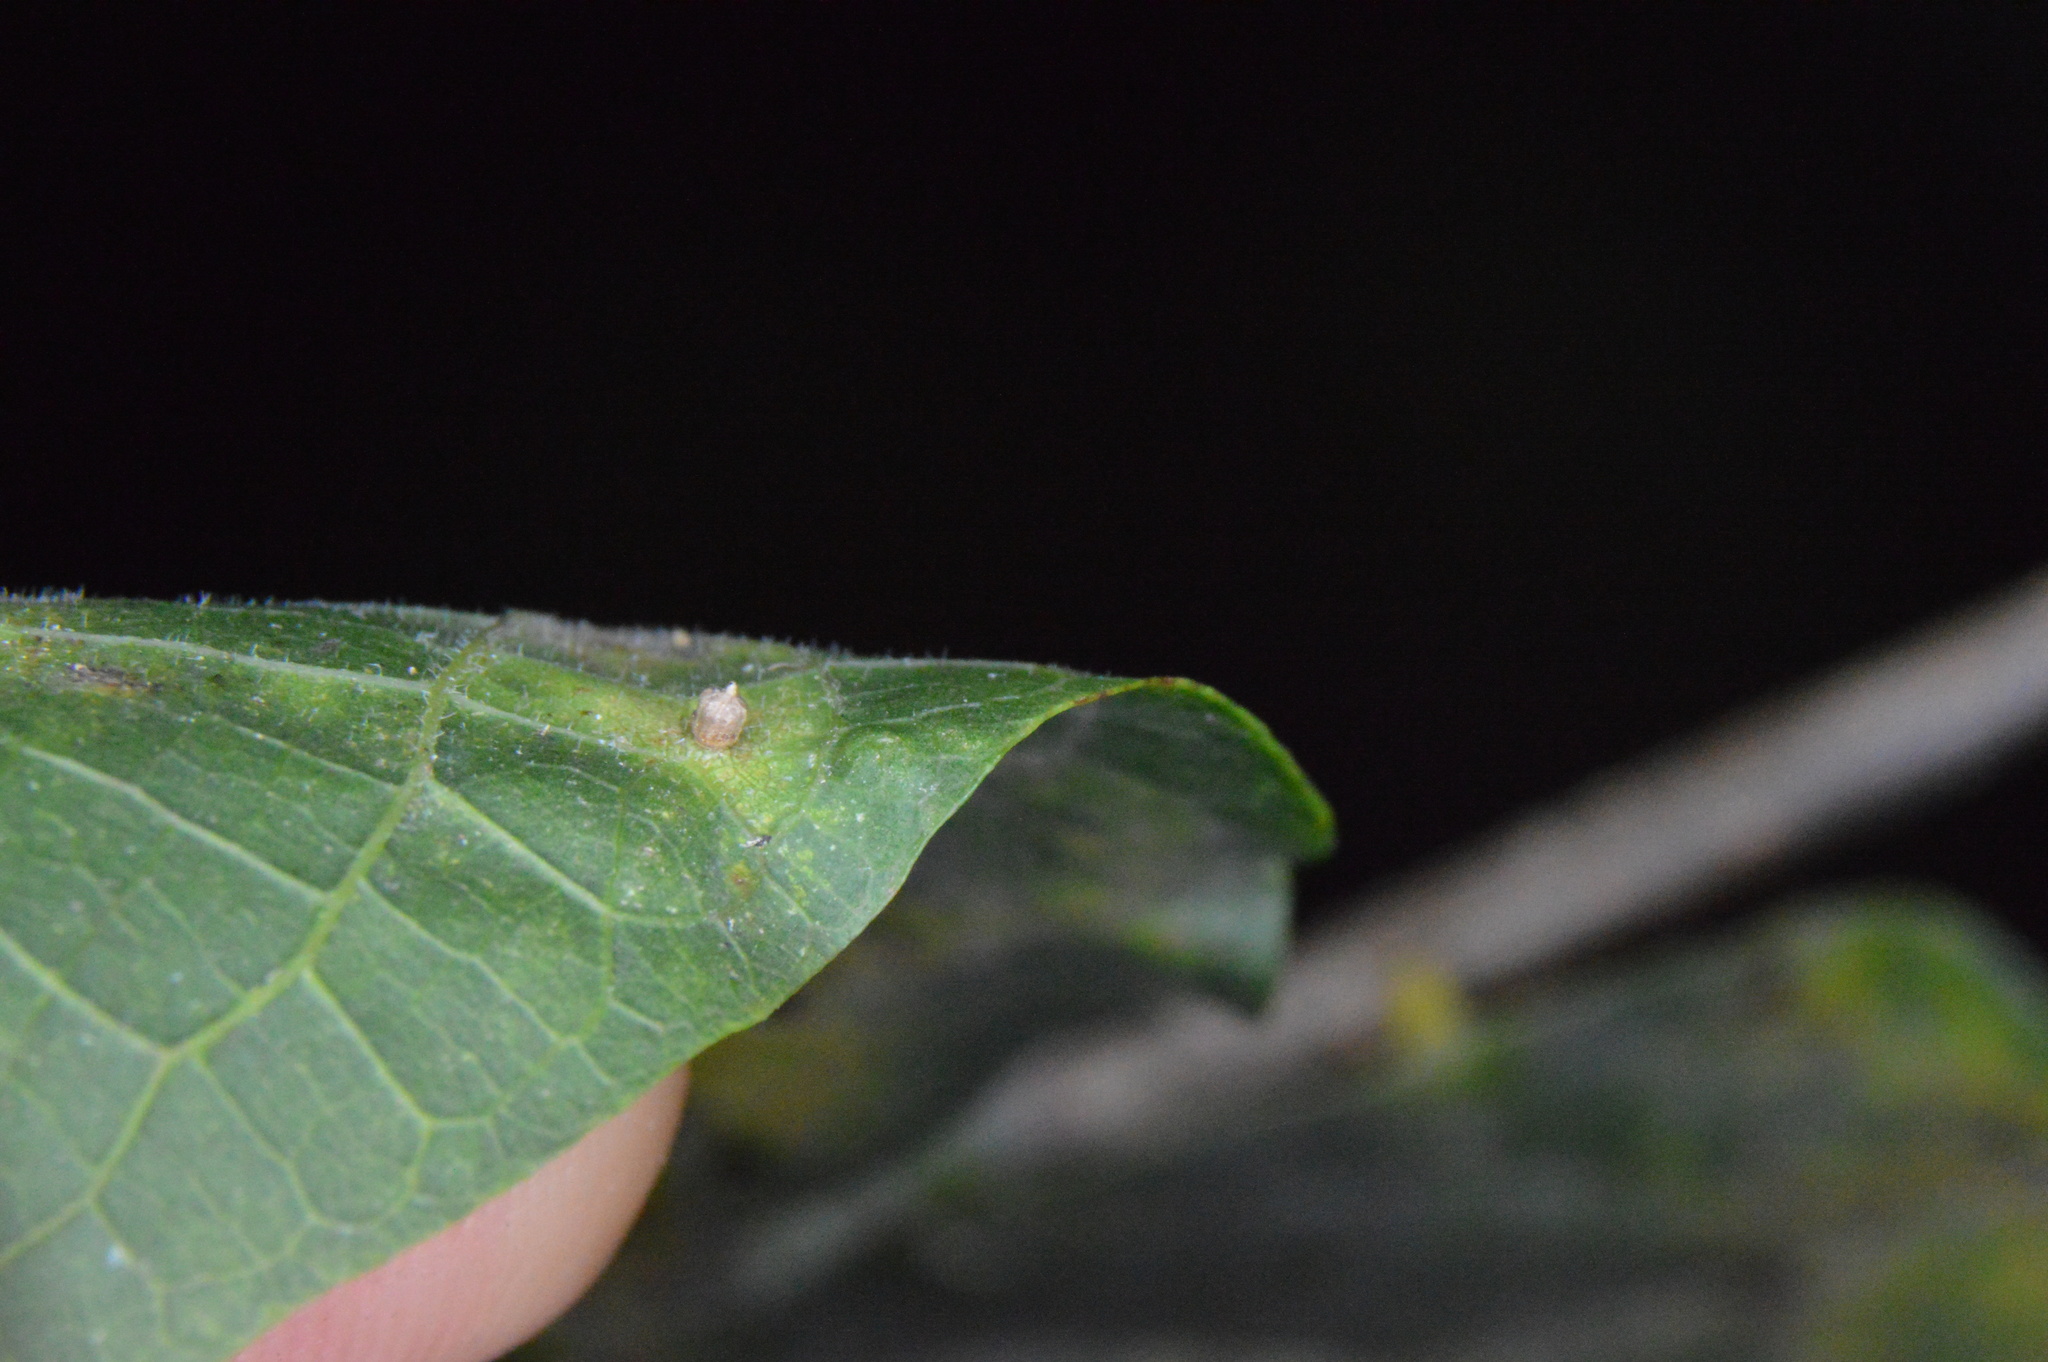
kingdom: Animalia
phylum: Arthropoda
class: Insecta
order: Diptera
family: Cecidomyiidae
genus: Celticecis
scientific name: Celticecis ramicola
